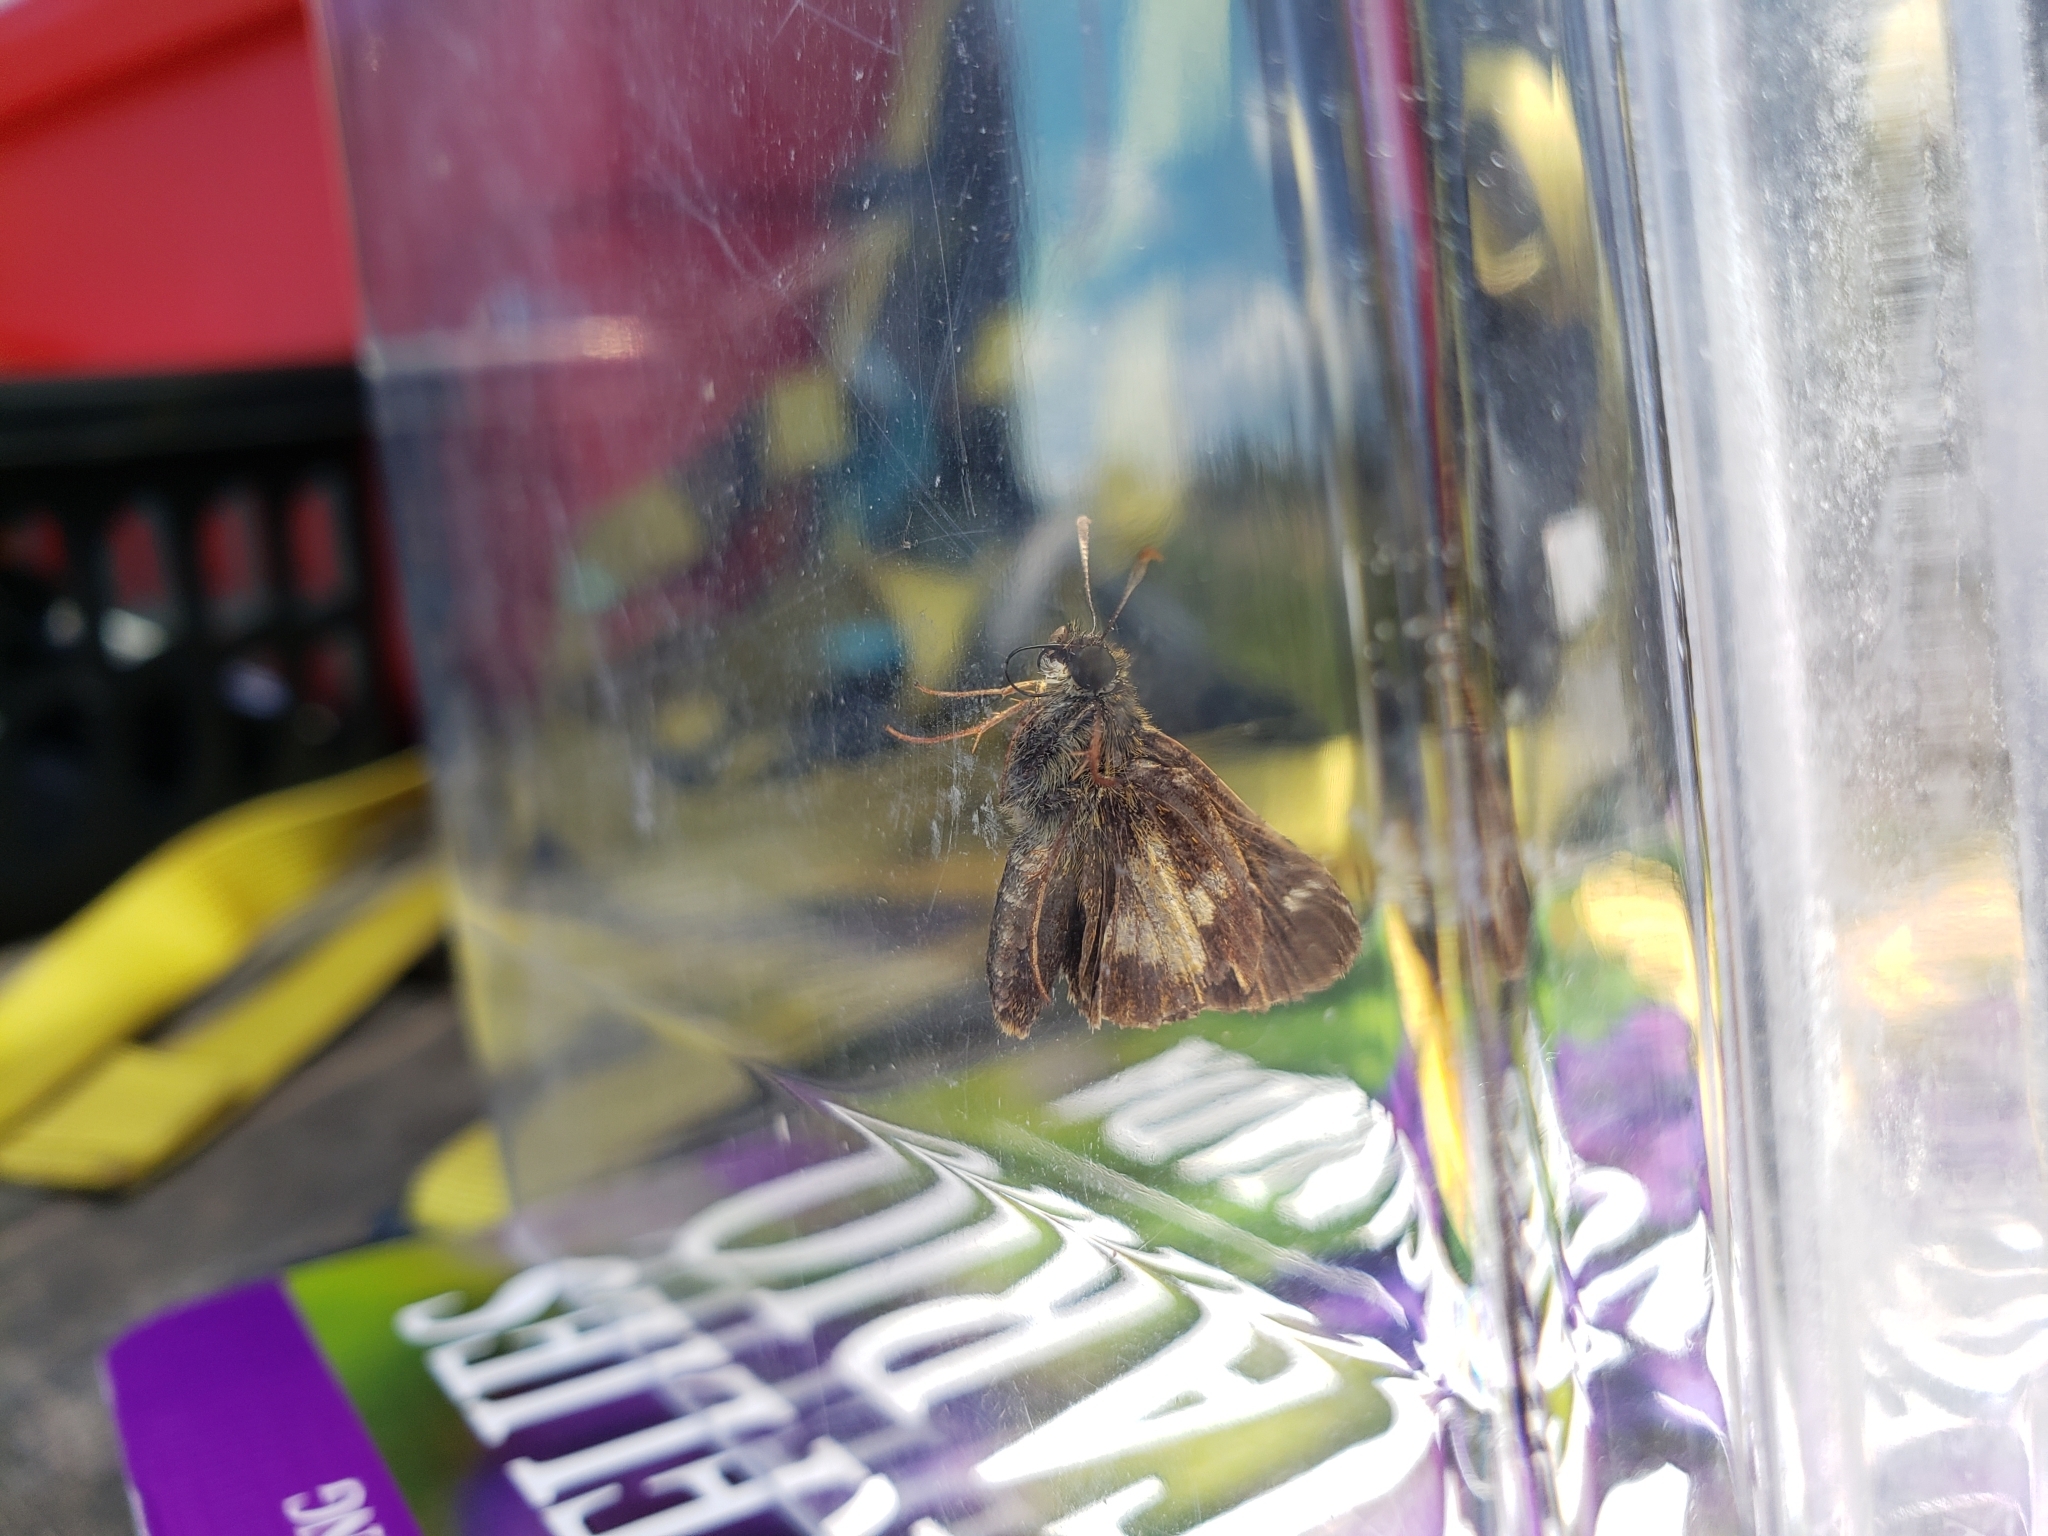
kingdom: Animalia
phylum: Arthropoda
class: Insecta
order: Lepidoptera
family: Hesperiidae
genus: Poanes
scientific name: Poanes massasoit
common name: Mulberrywing
